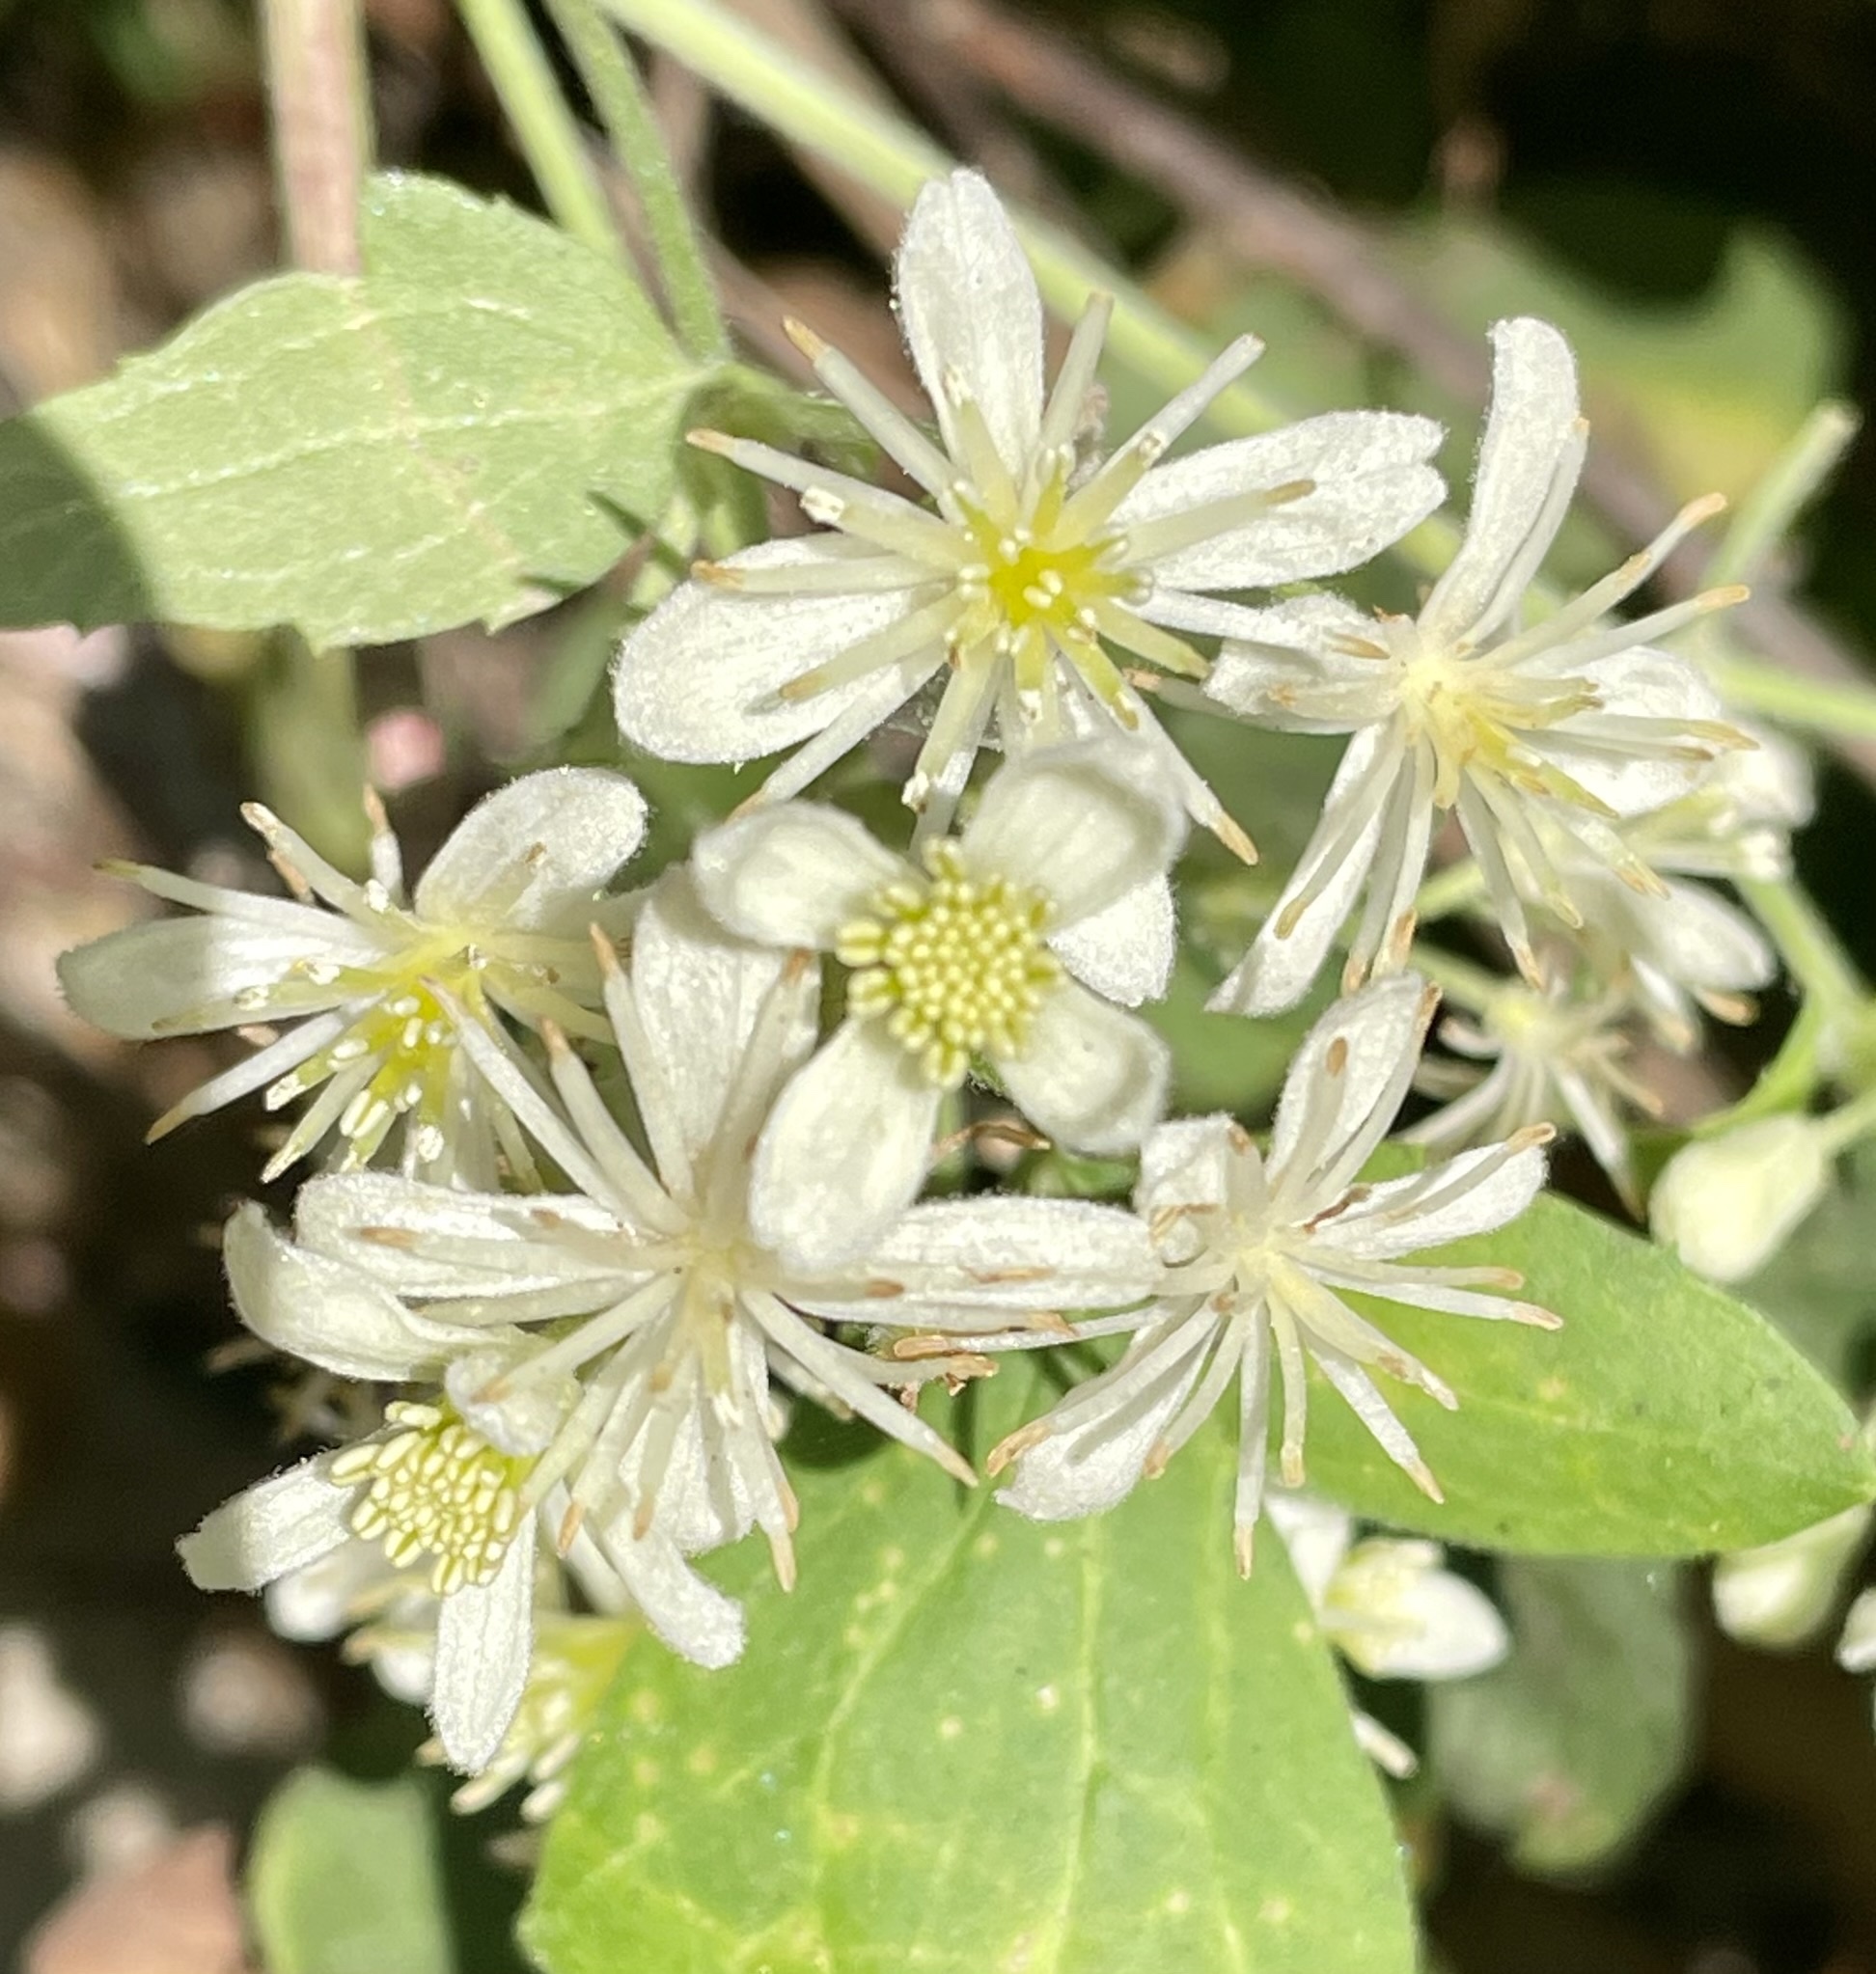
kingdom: Plantae
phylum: Tracheophyta
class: Magnoliopsida
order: Ranunculales
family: Ranunculaceae
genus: Clematis
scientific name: Clematis ligusticifolia
